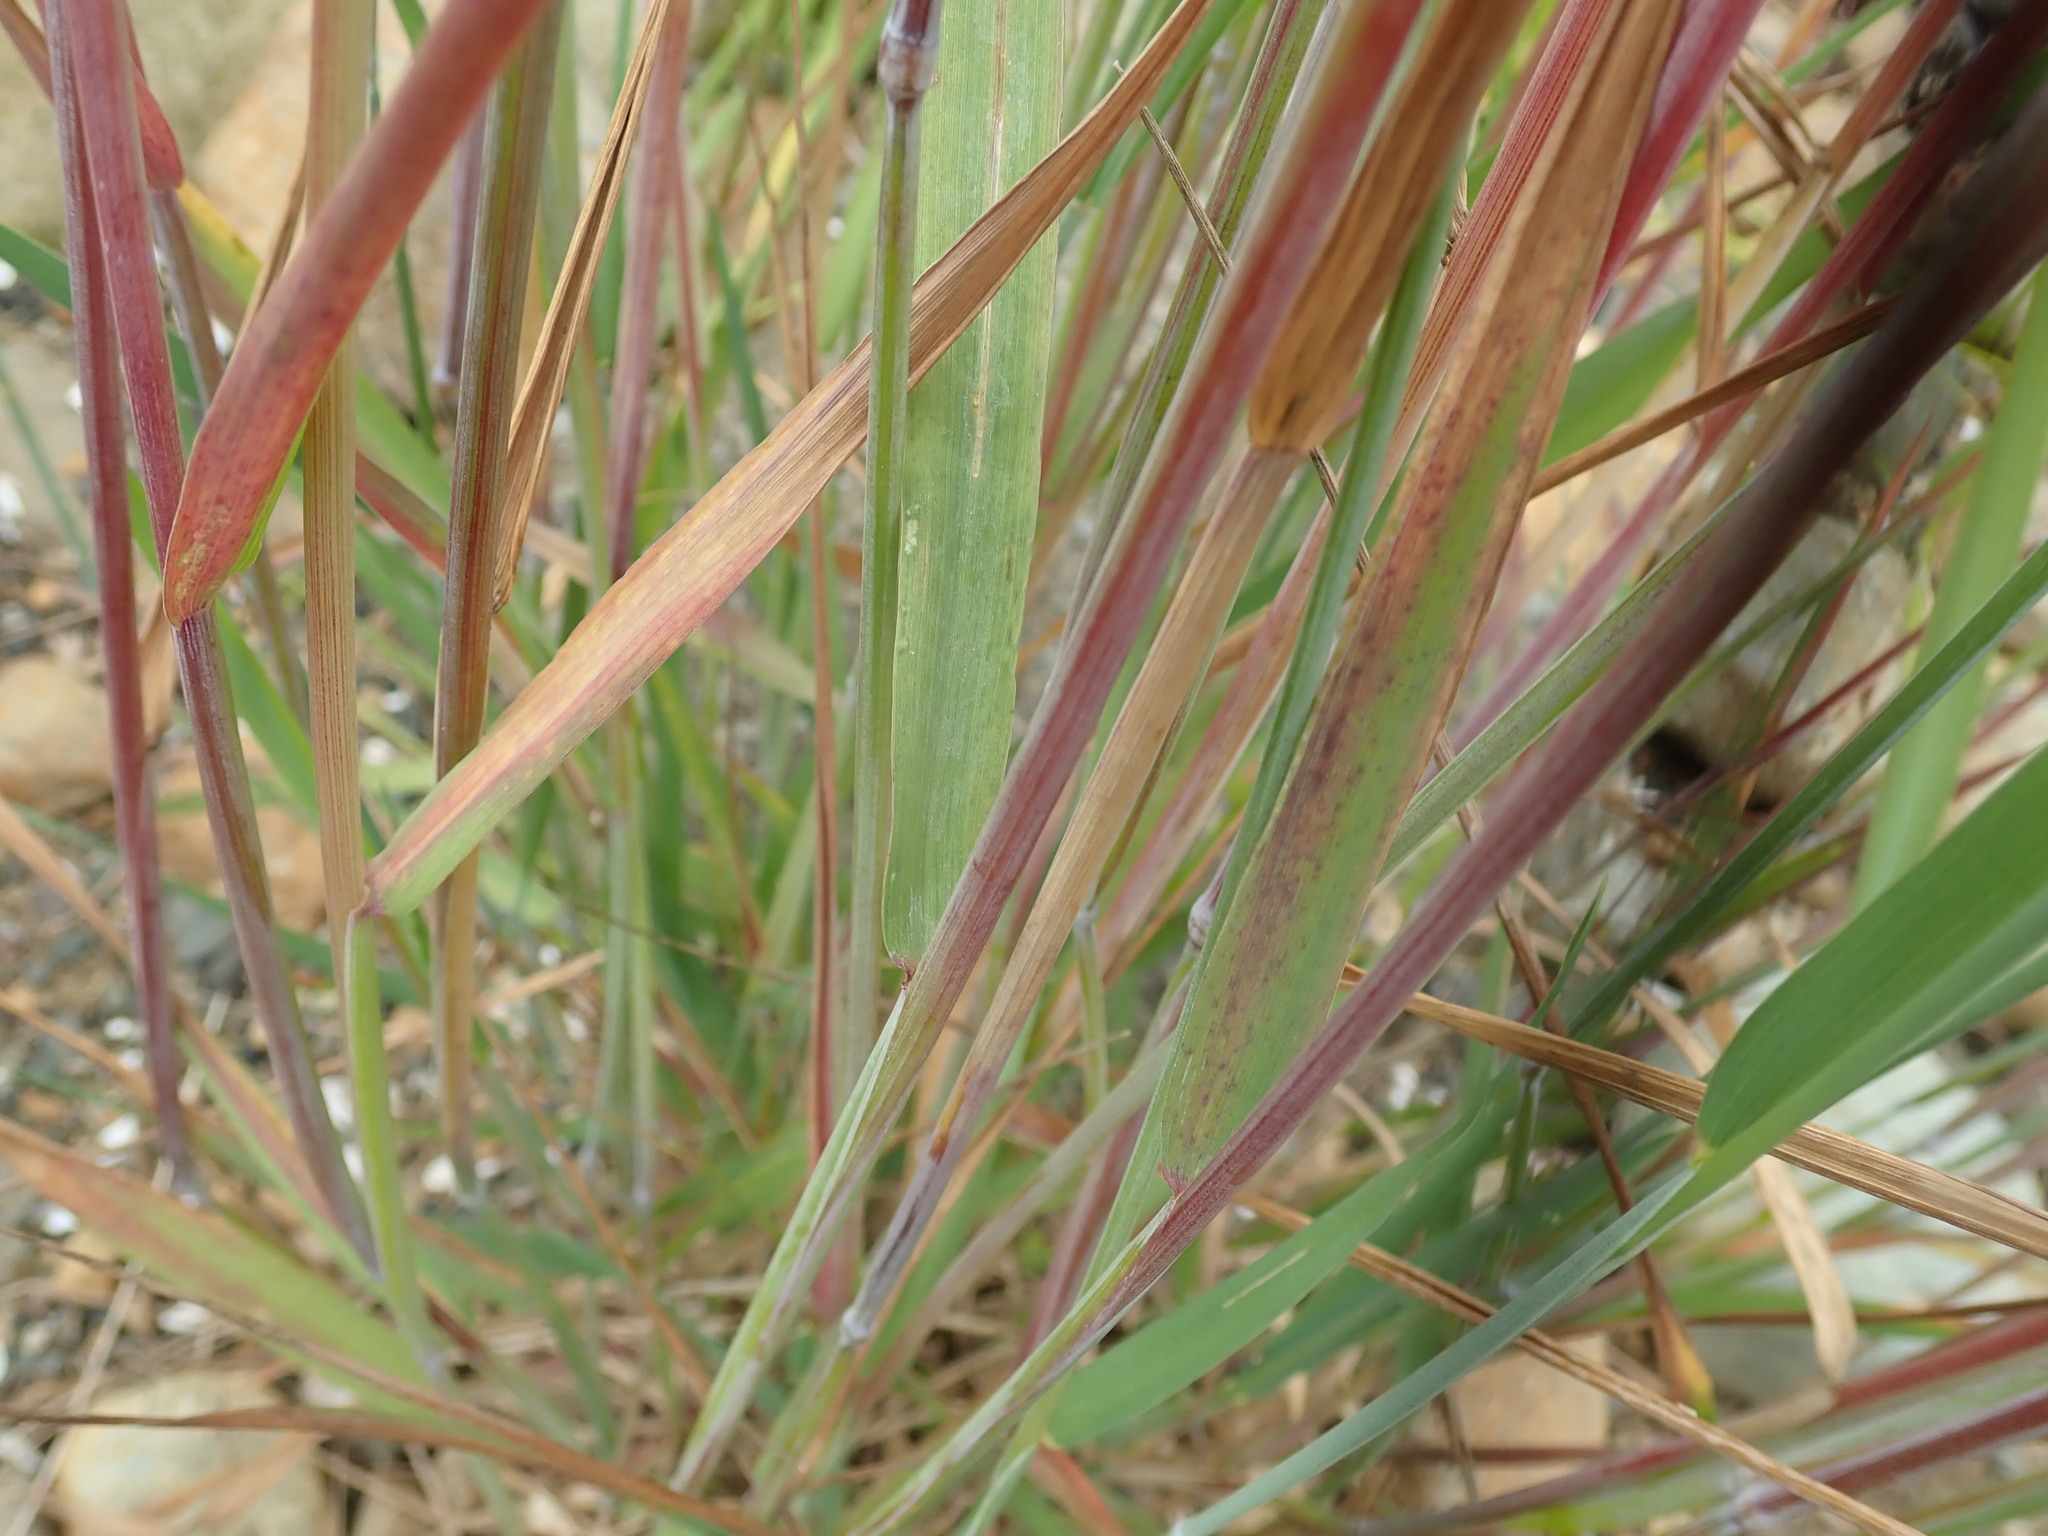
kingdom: Plantae
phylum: Tracheophyta
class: Liliopsida
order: Poales
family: Poaceae
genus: Hordeum
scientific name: Hordeum brachyantherum
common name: Meadow barley
